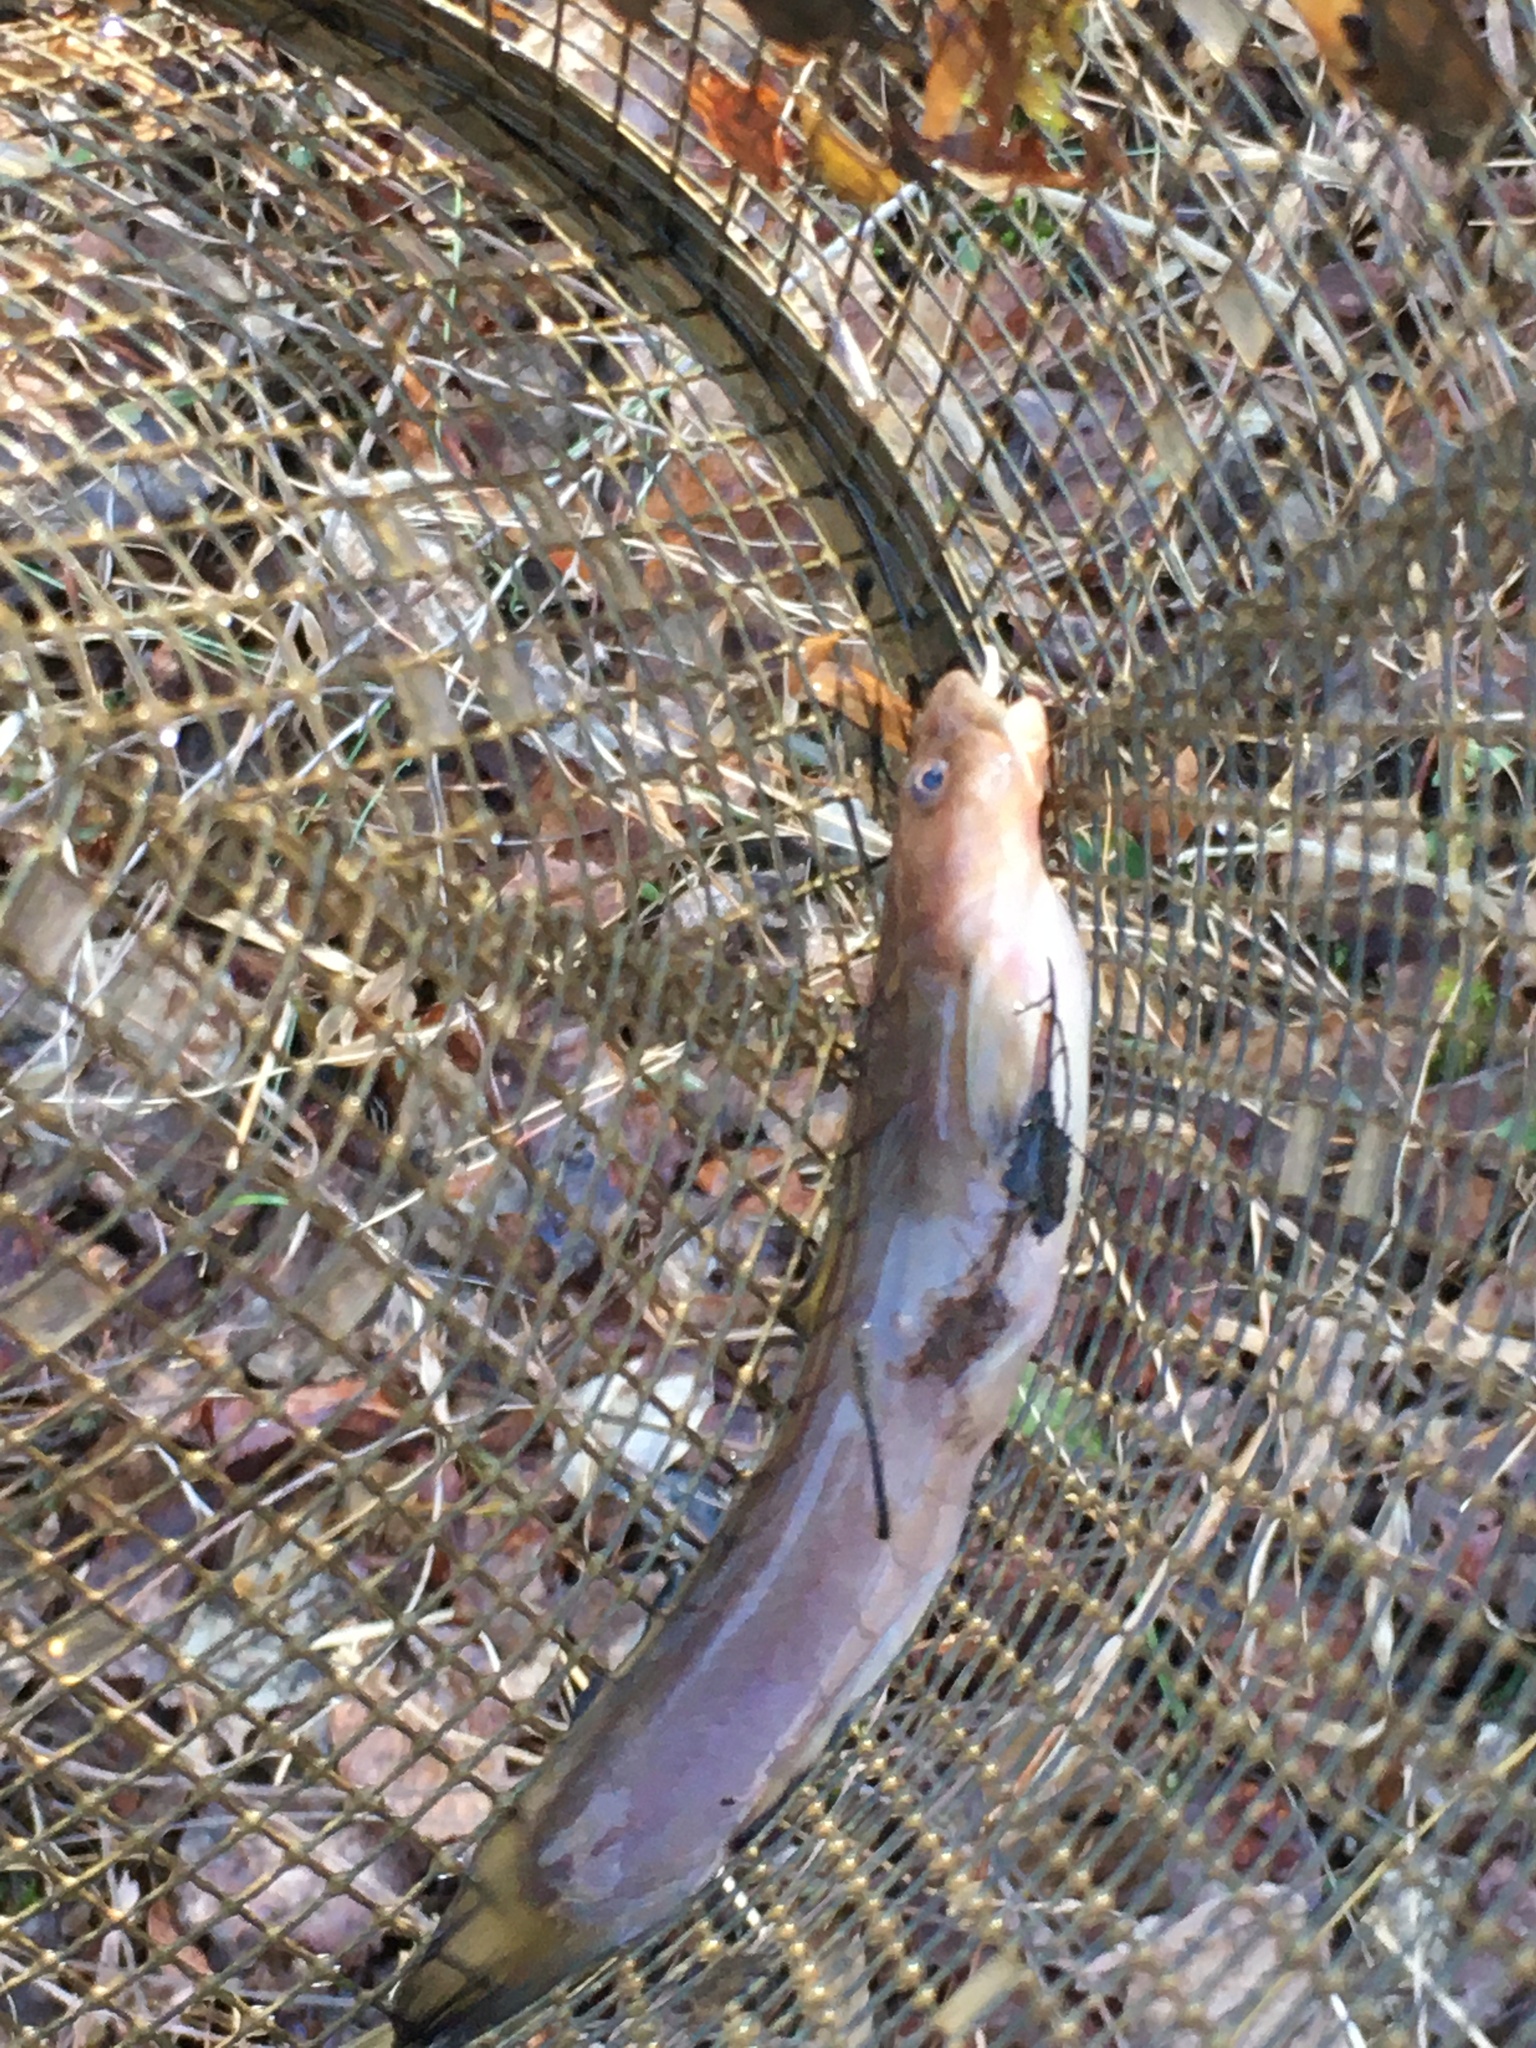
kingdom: Animalia
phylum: Chordata
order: Siluriformes
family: Ictaluridae
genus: Noturus
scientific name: Noturus insignis
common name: Margined madtom
